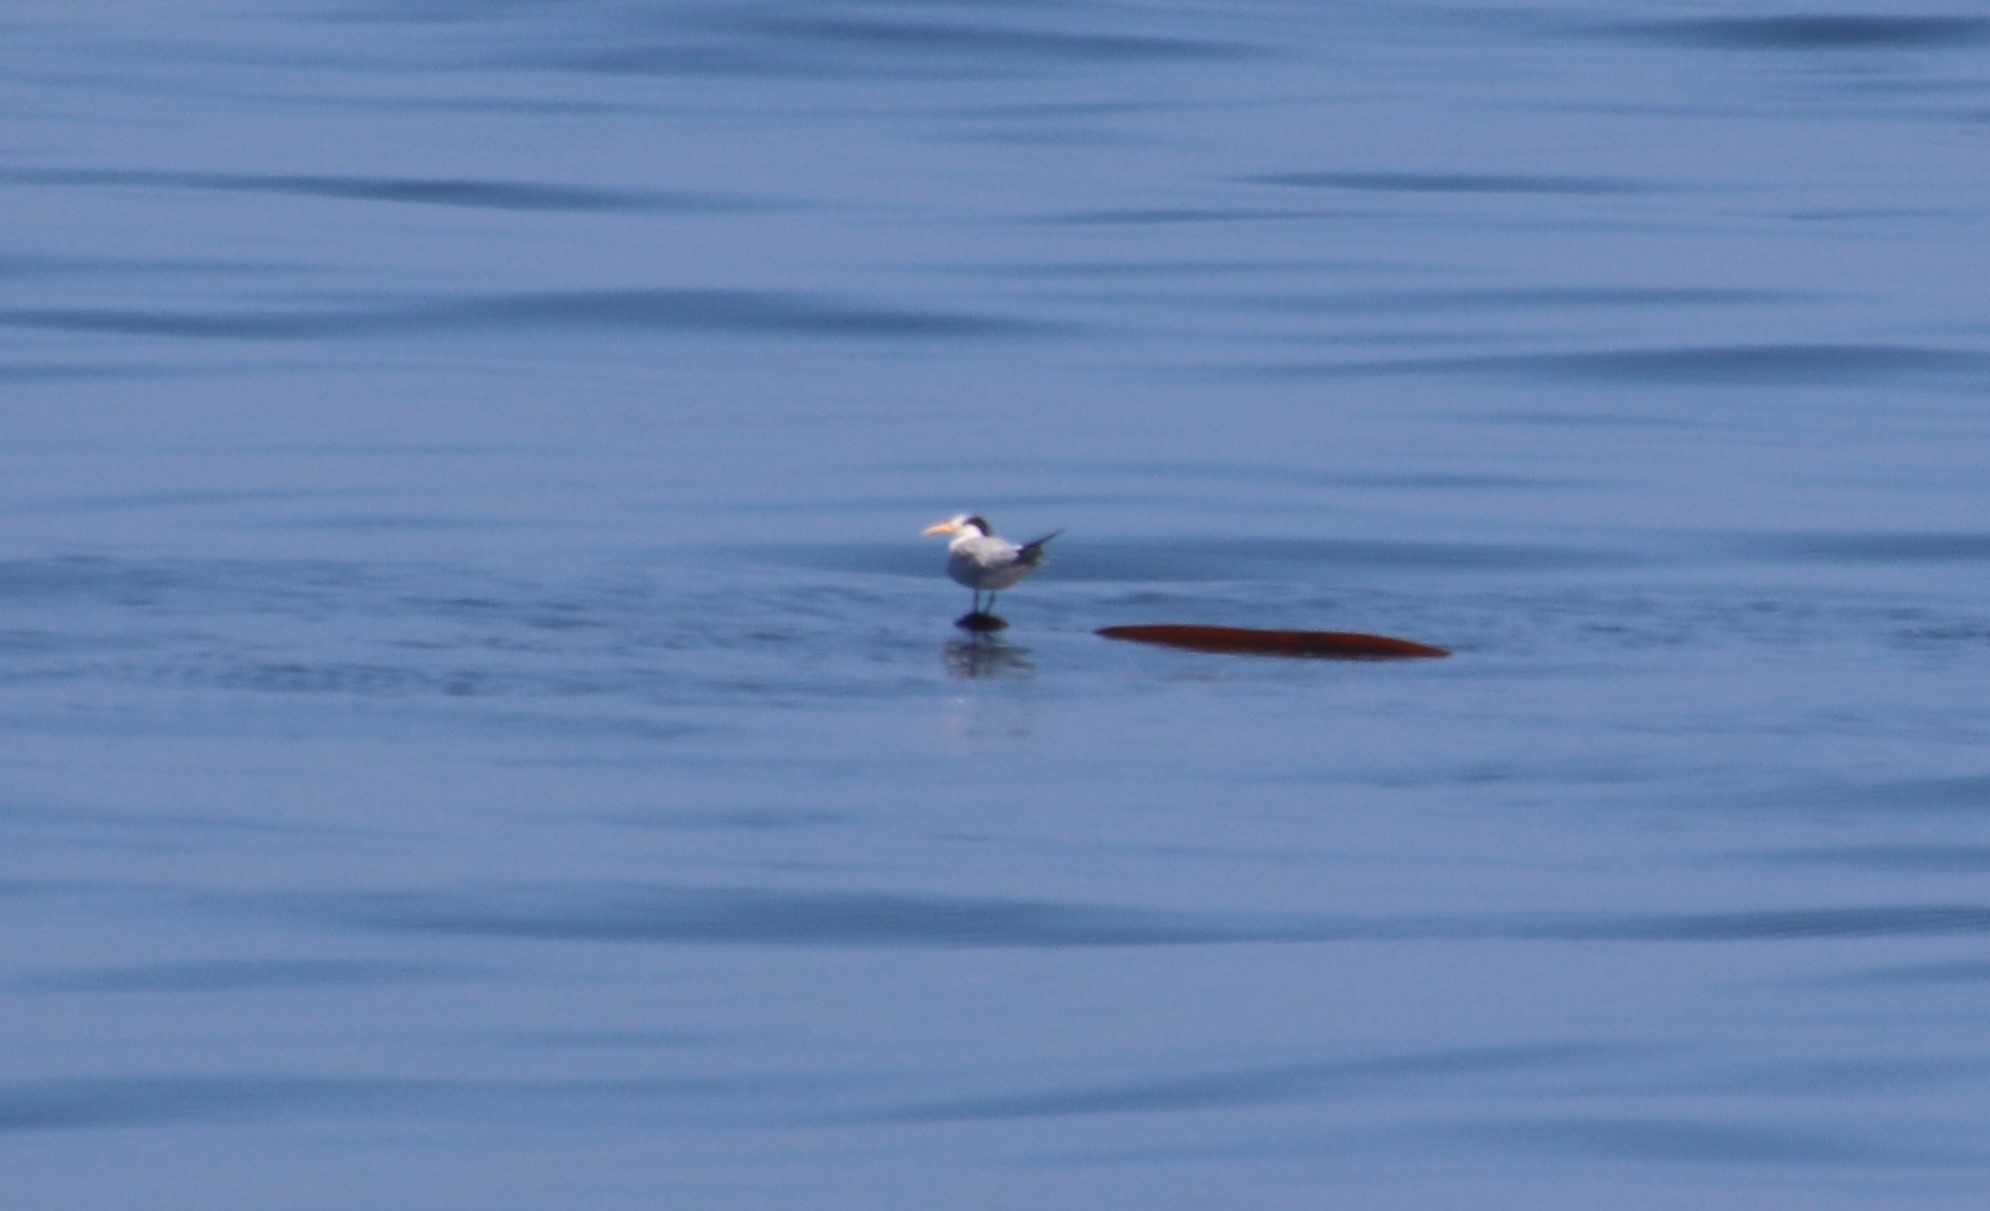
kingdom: Animalia
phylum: Chordata
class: Aves
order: Charadriiformes
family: Laridae
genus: Thalasseus
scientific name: Thalasseus elegans
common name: Elegant tern
